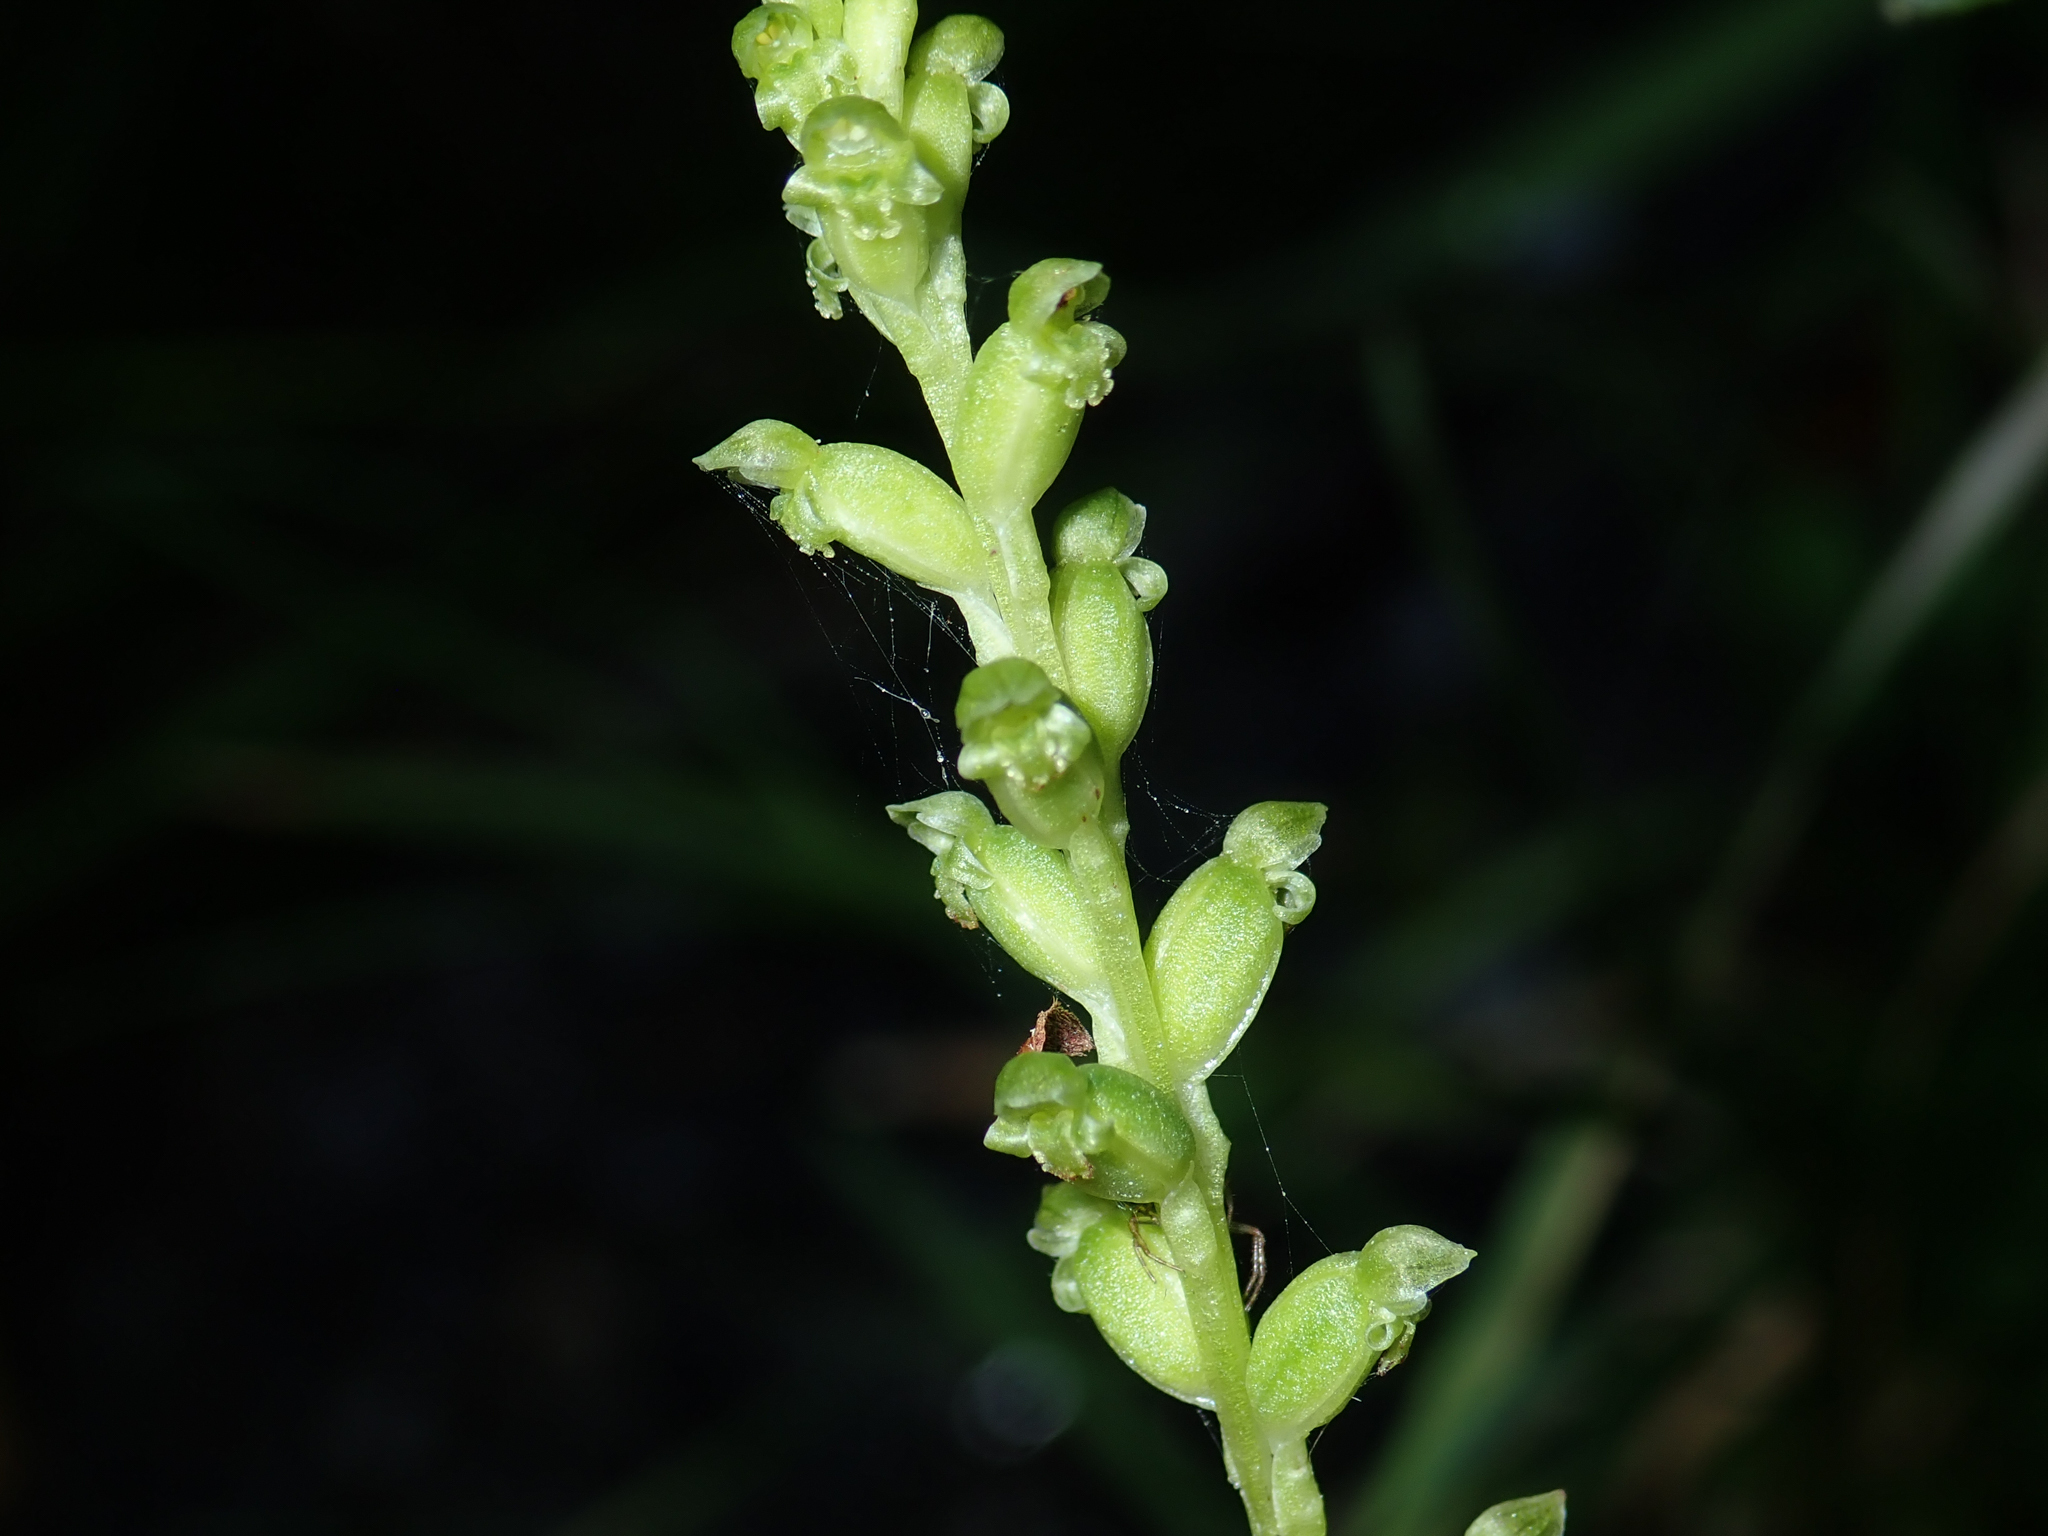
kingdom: Plantae
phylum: Tracheophyta
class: Liliopsida
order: Asparagales
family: Orchidaceae
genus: Microtis
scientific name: Microtis unifolia
